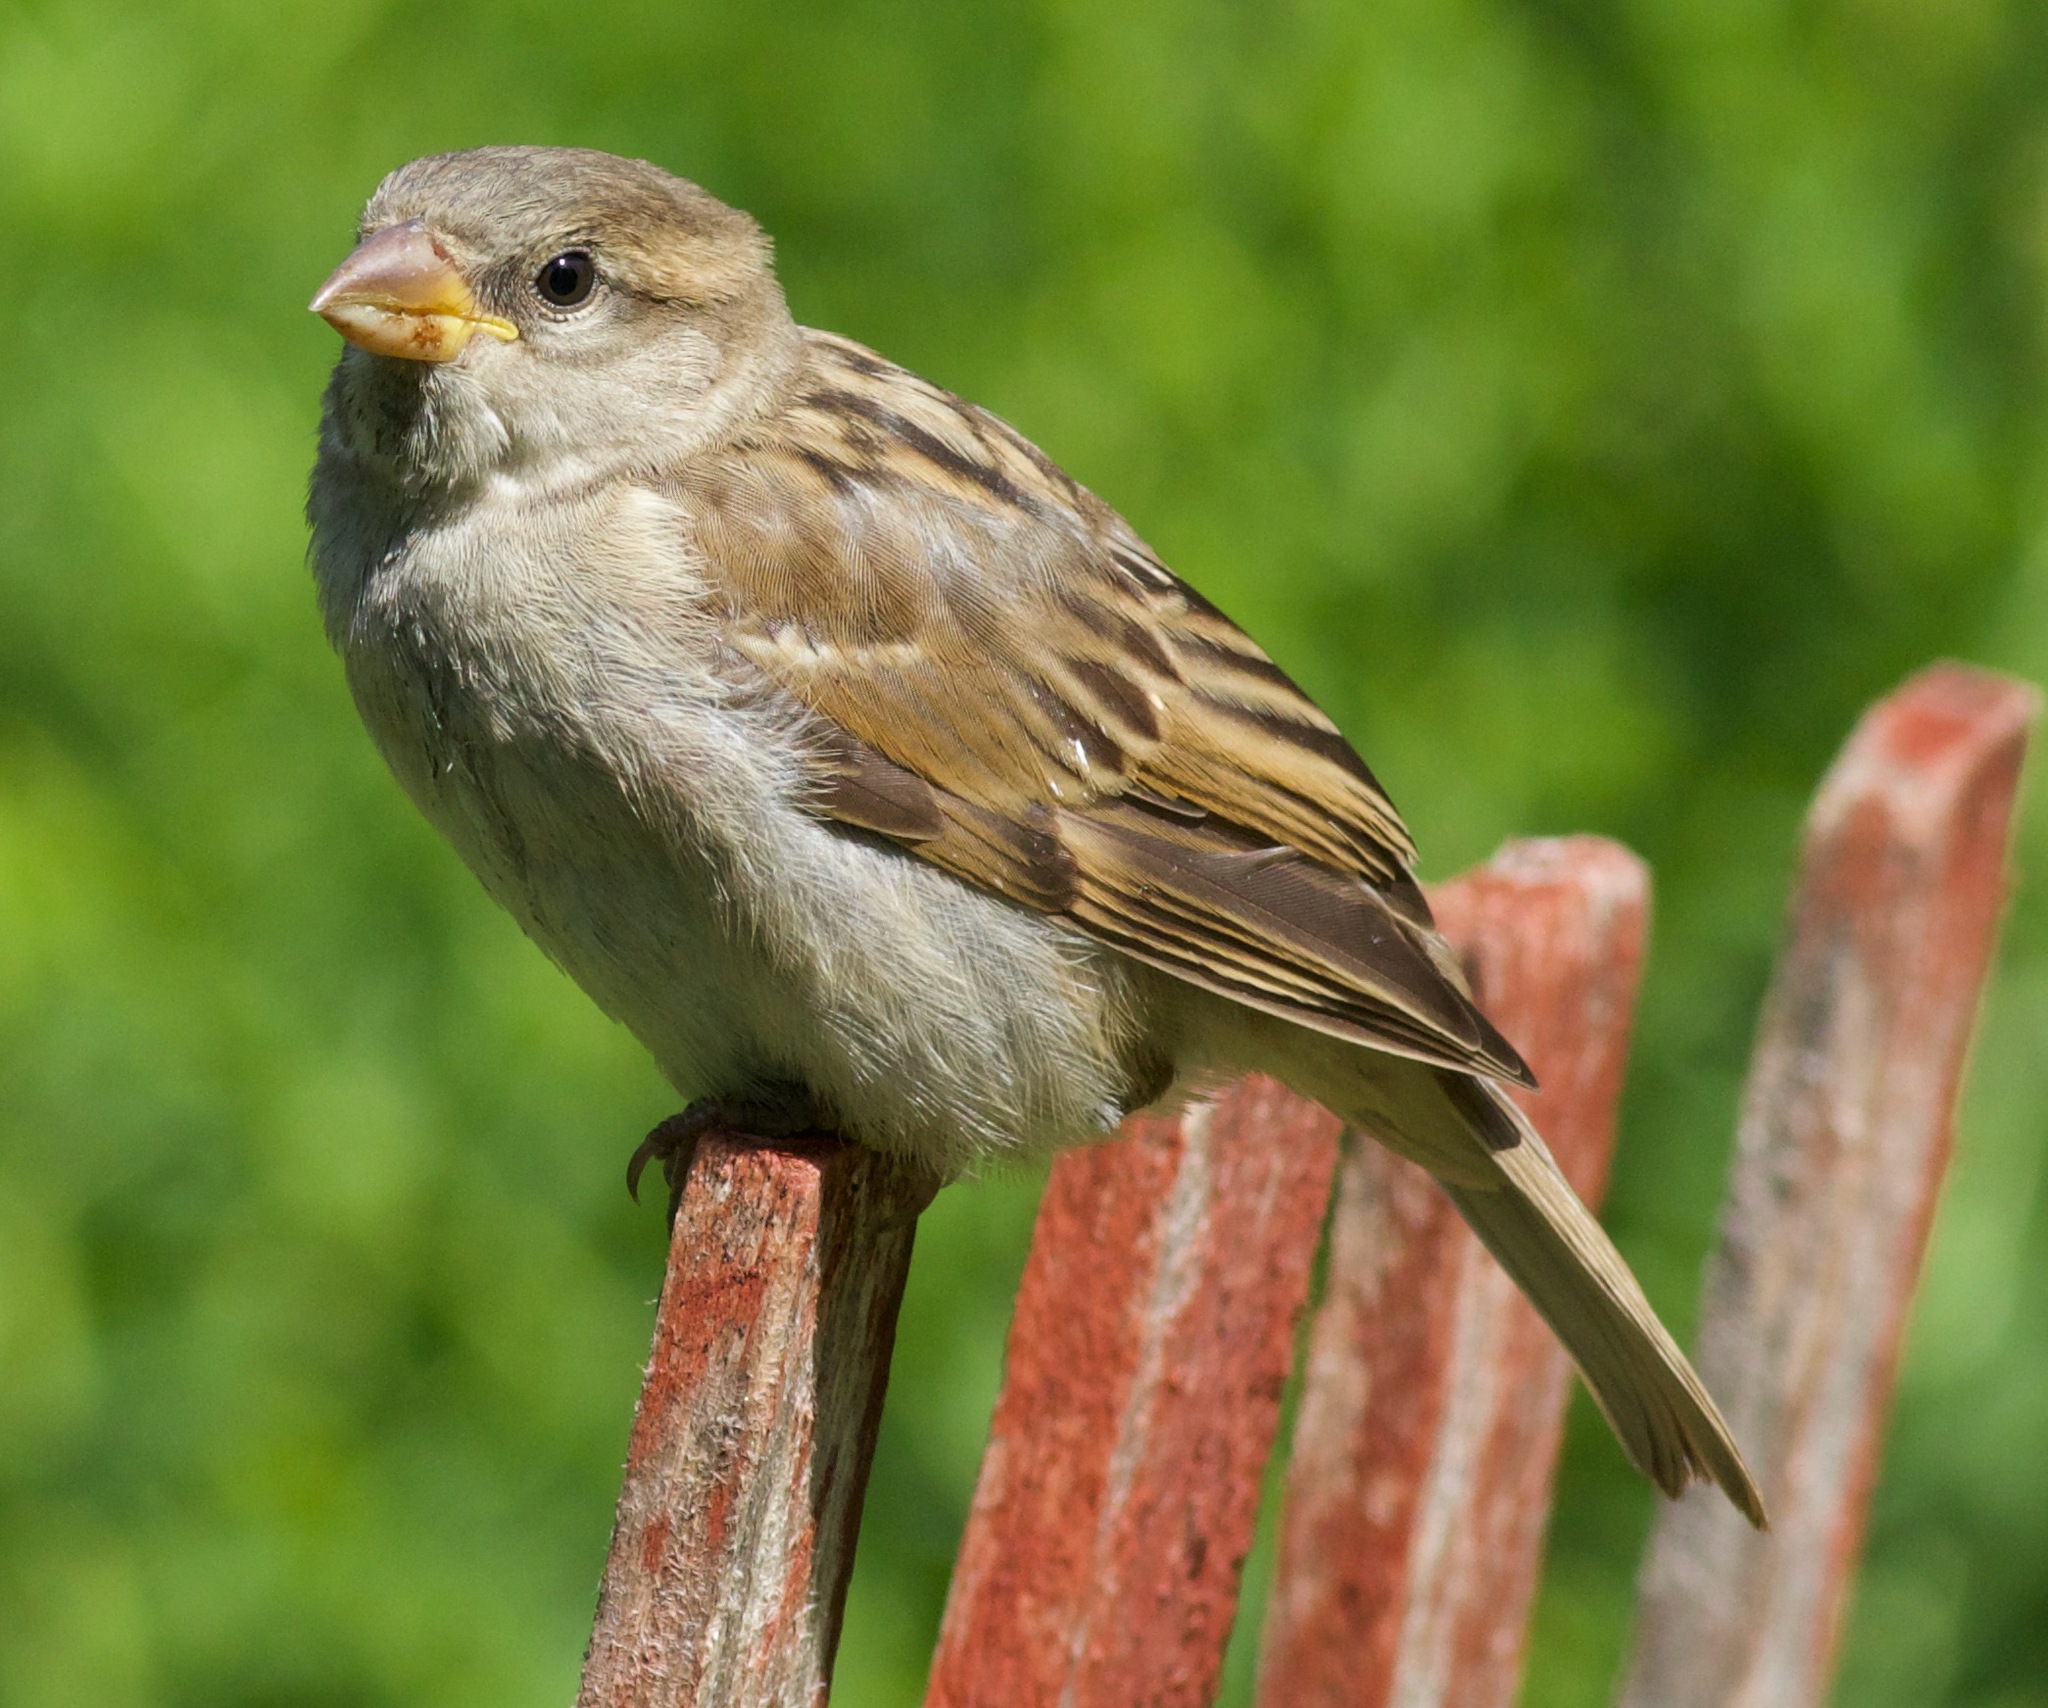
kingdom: Animalia
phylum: Chordata
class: Aves
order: Passeriformes
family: Passeridae
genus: Passer
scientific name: Passer domesticus
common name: House sparrow
